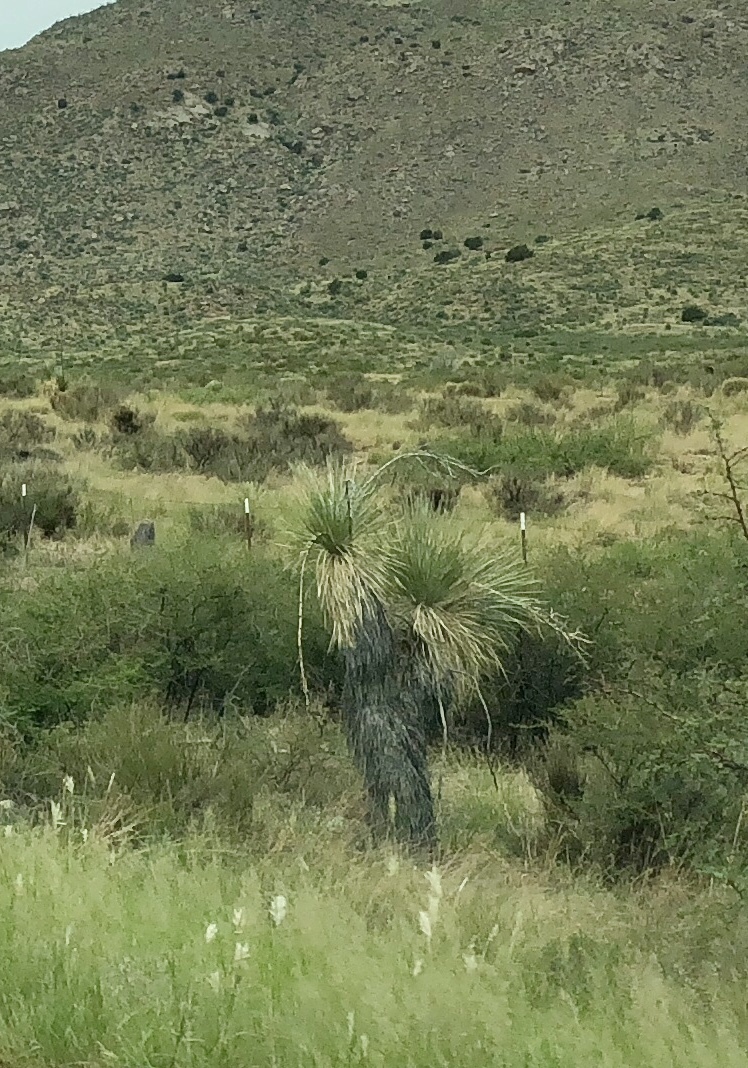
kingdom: Plantae
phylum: Tracheophyta
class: Liliopsida
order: Asparagales
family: Asparagaceae
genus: Yucca
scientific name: Yucca elata
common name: Palmella
